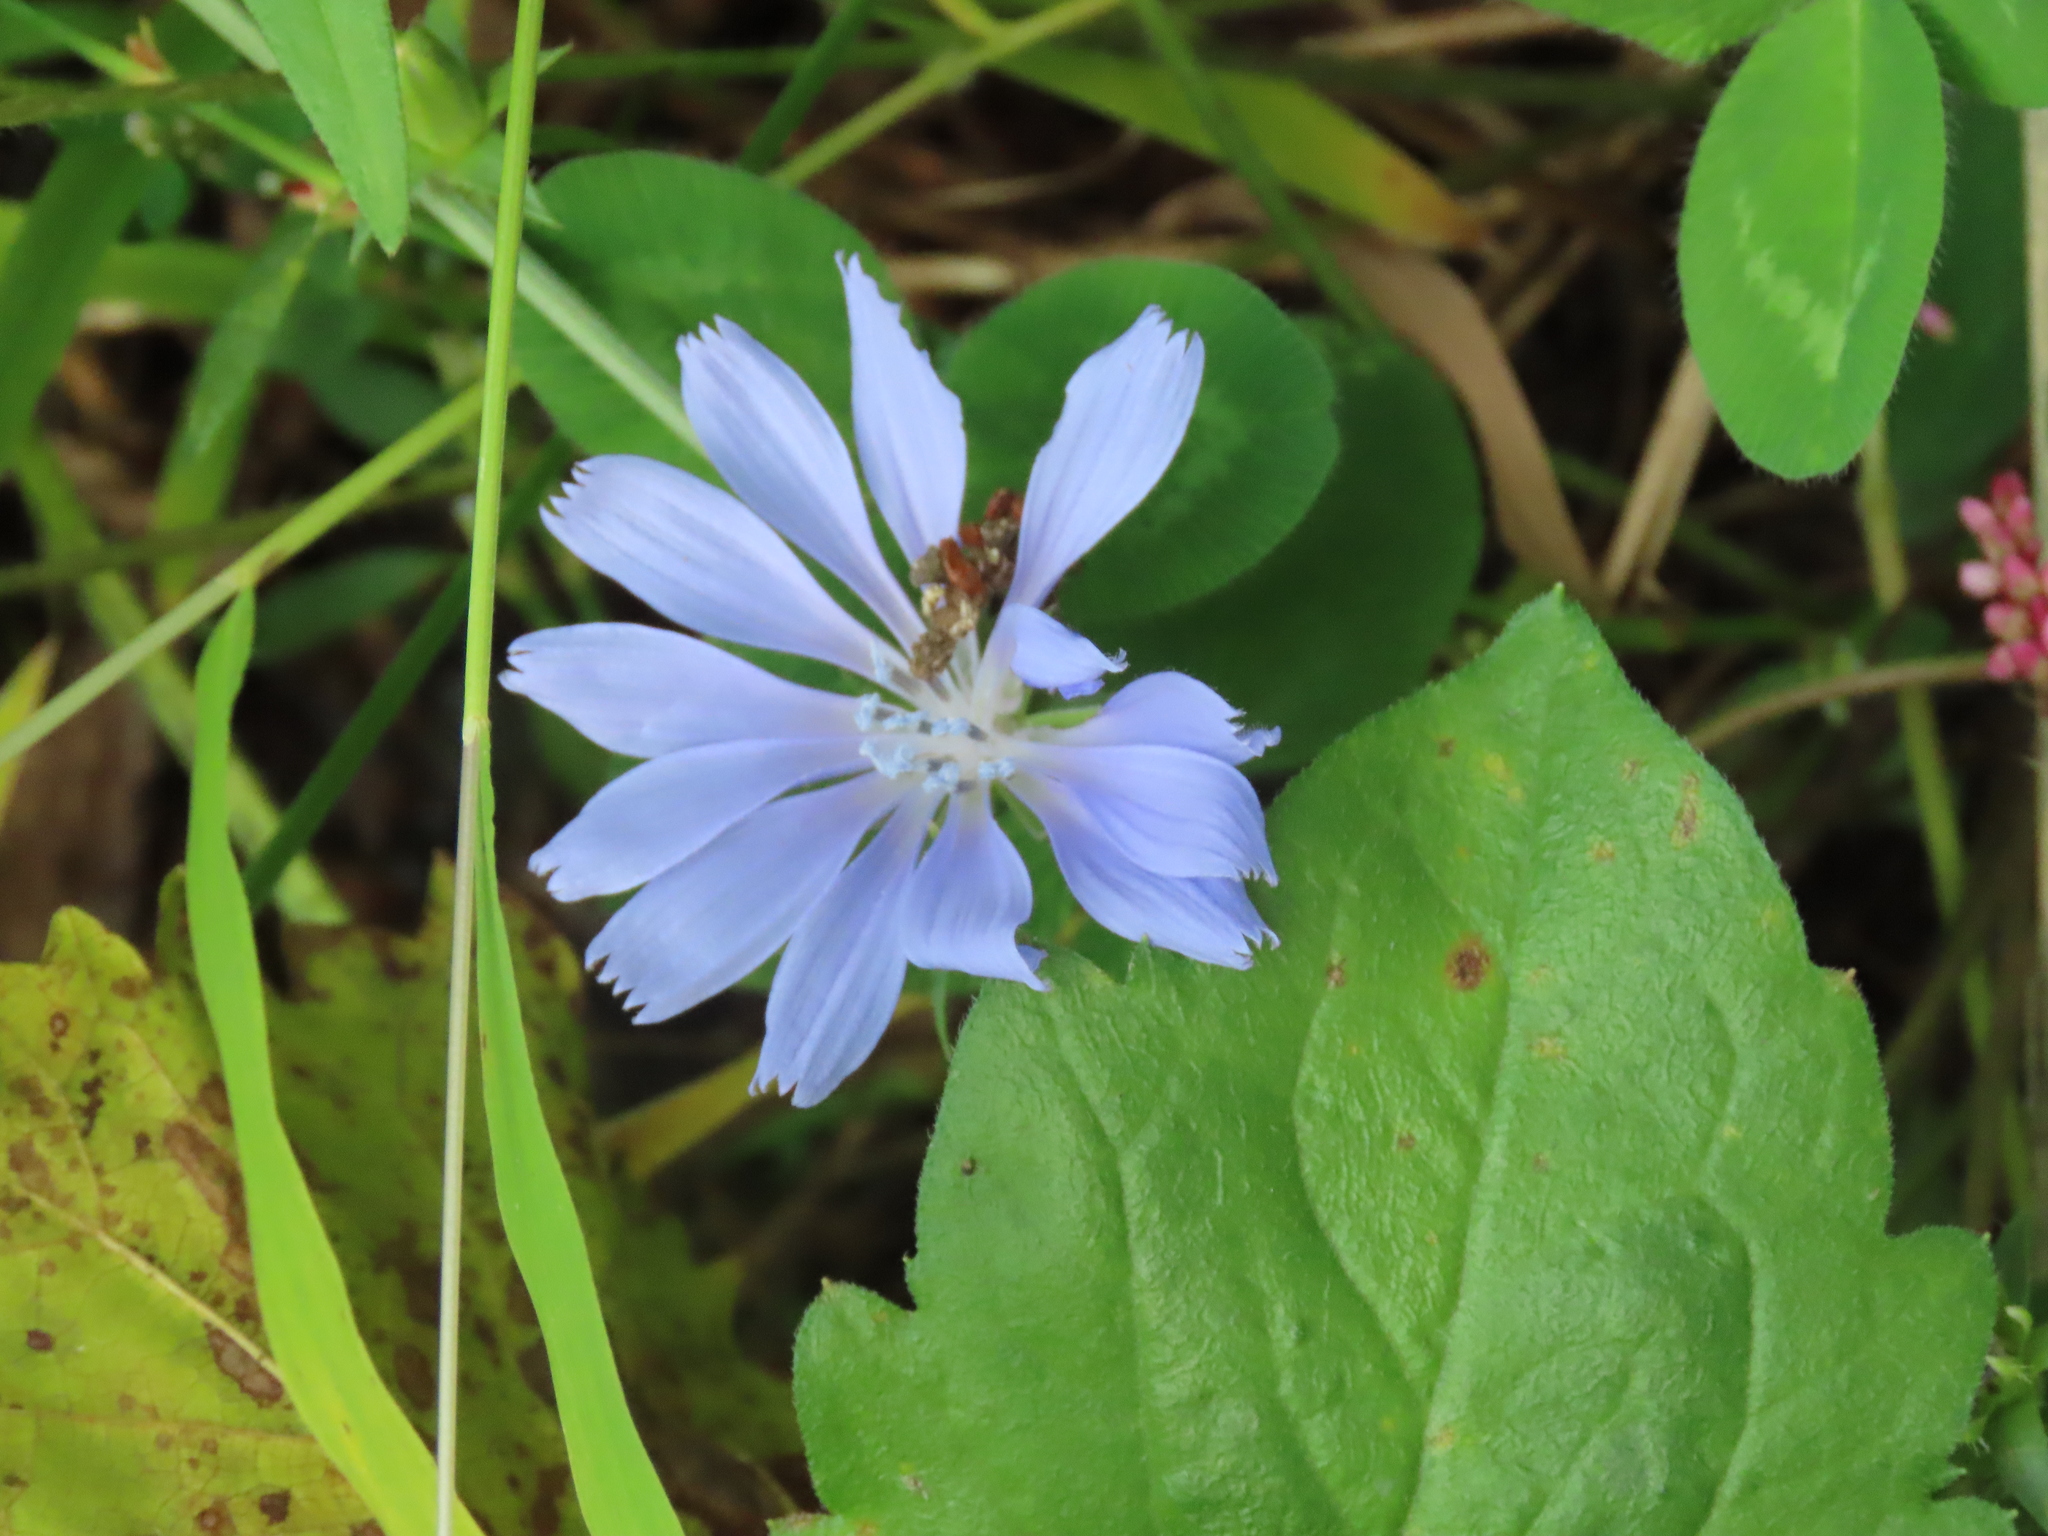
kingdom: Plantae
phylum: Tracheophyta
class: Magnoliopsida
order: Asterales
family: Asteraceae
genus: Cichorium
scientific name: Cichorium intybus
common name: Chicory
